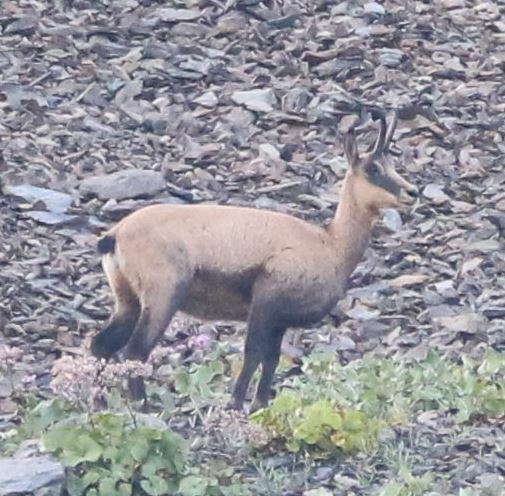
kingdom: Animalia
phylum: Chordata
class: Mammalia
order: Artiodactyla
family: Bovidae
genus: Rupicapra
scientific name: Rupicapra rupicapra
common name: Chamois
